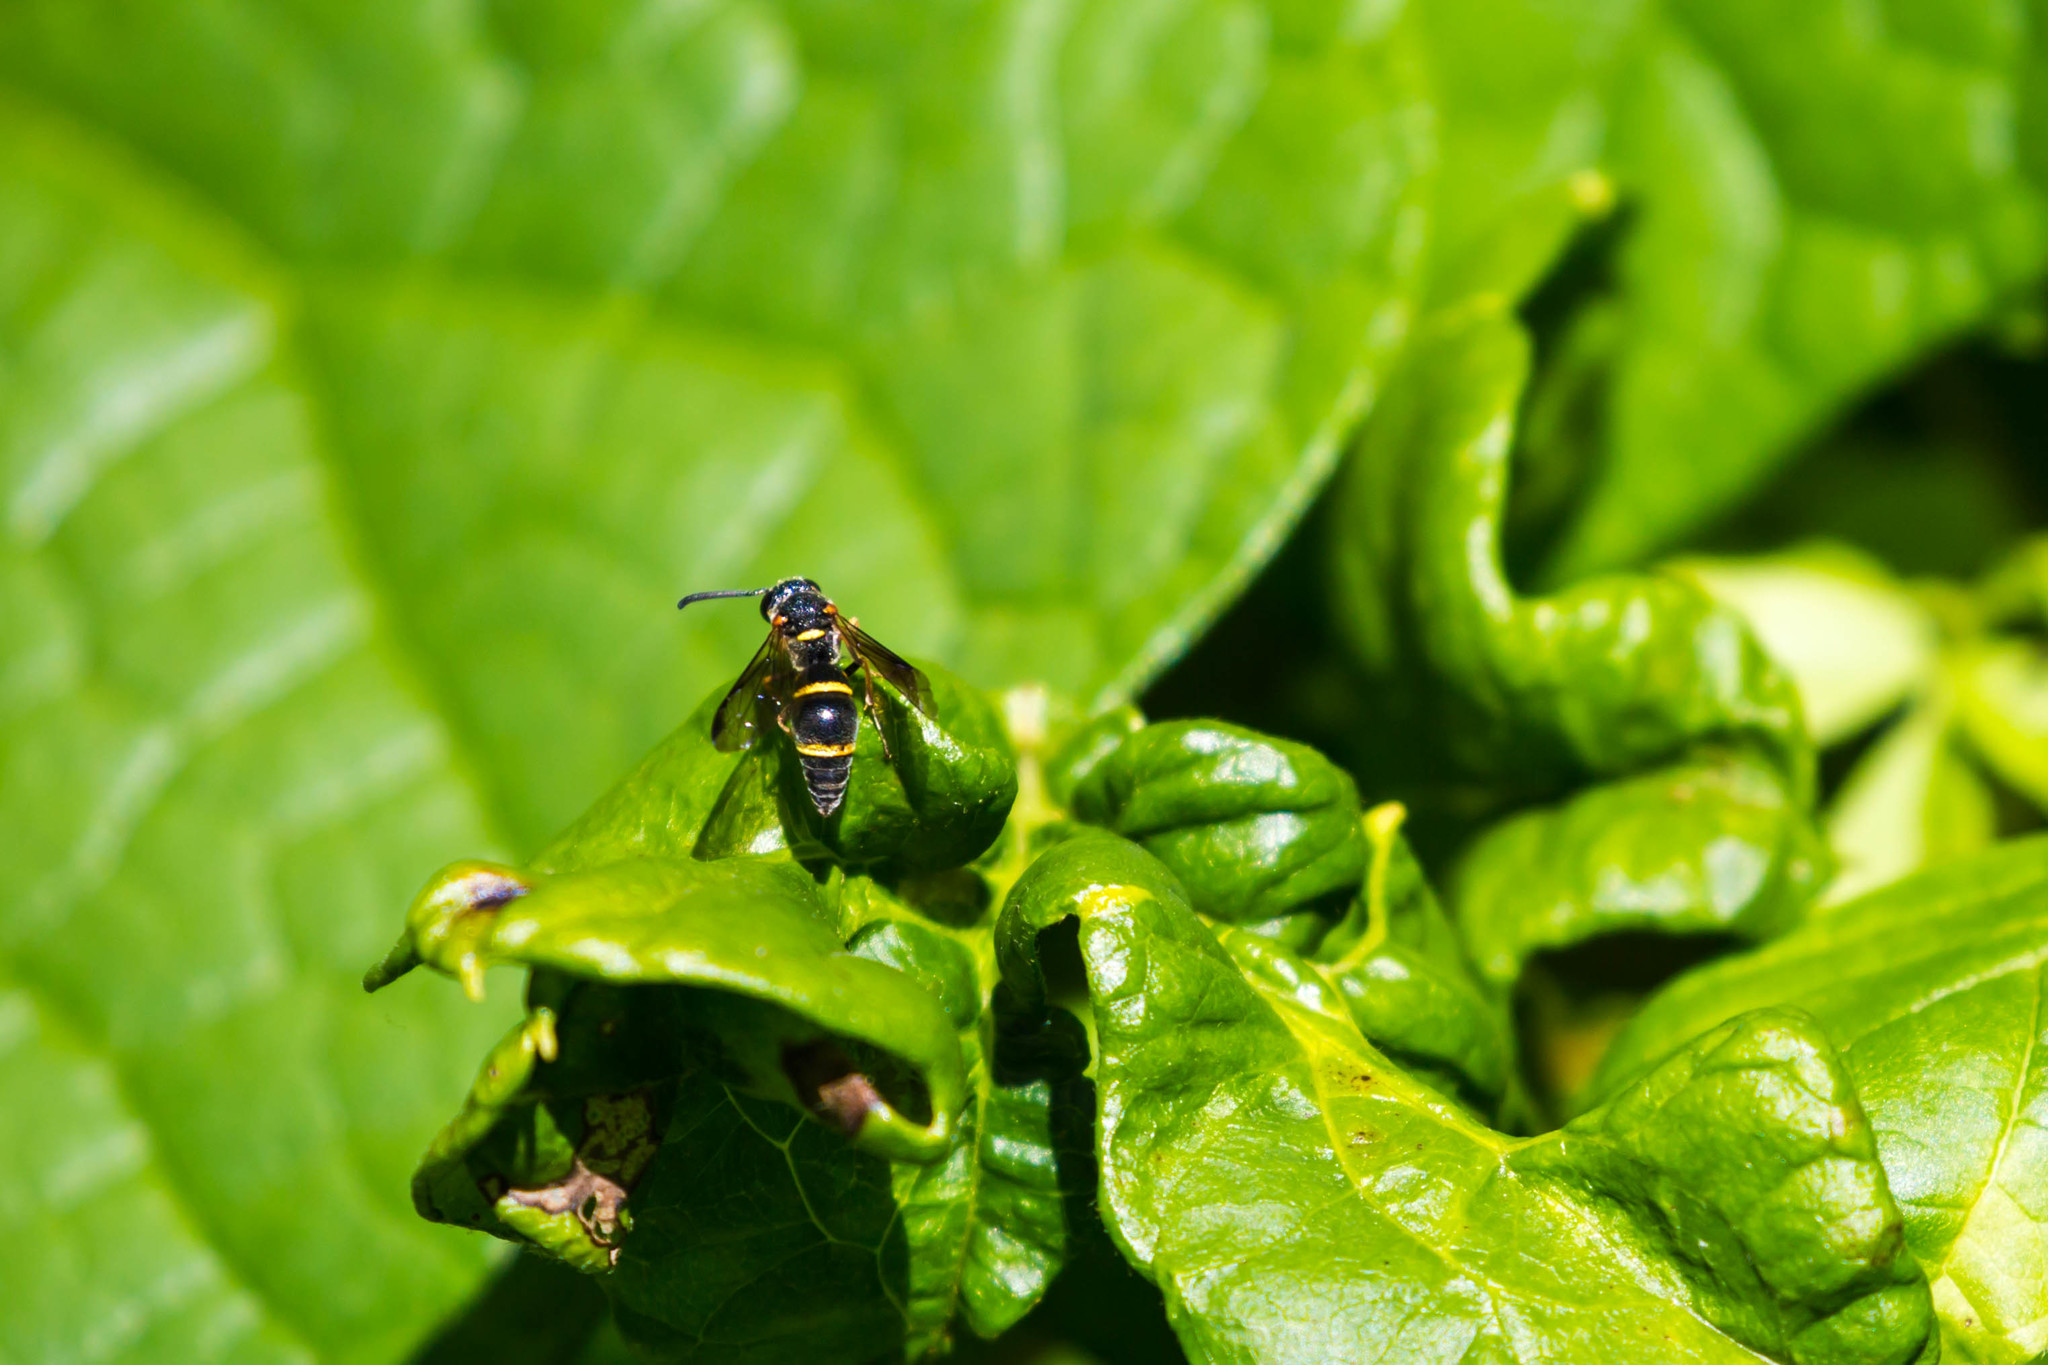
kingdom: Animalia
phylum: Arthropoda
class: Insecta
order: Hymenoptera
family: Eumenidae
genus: Parancistrocerus
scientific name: Parancistrocerus fulvipes
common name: Potter wasp
